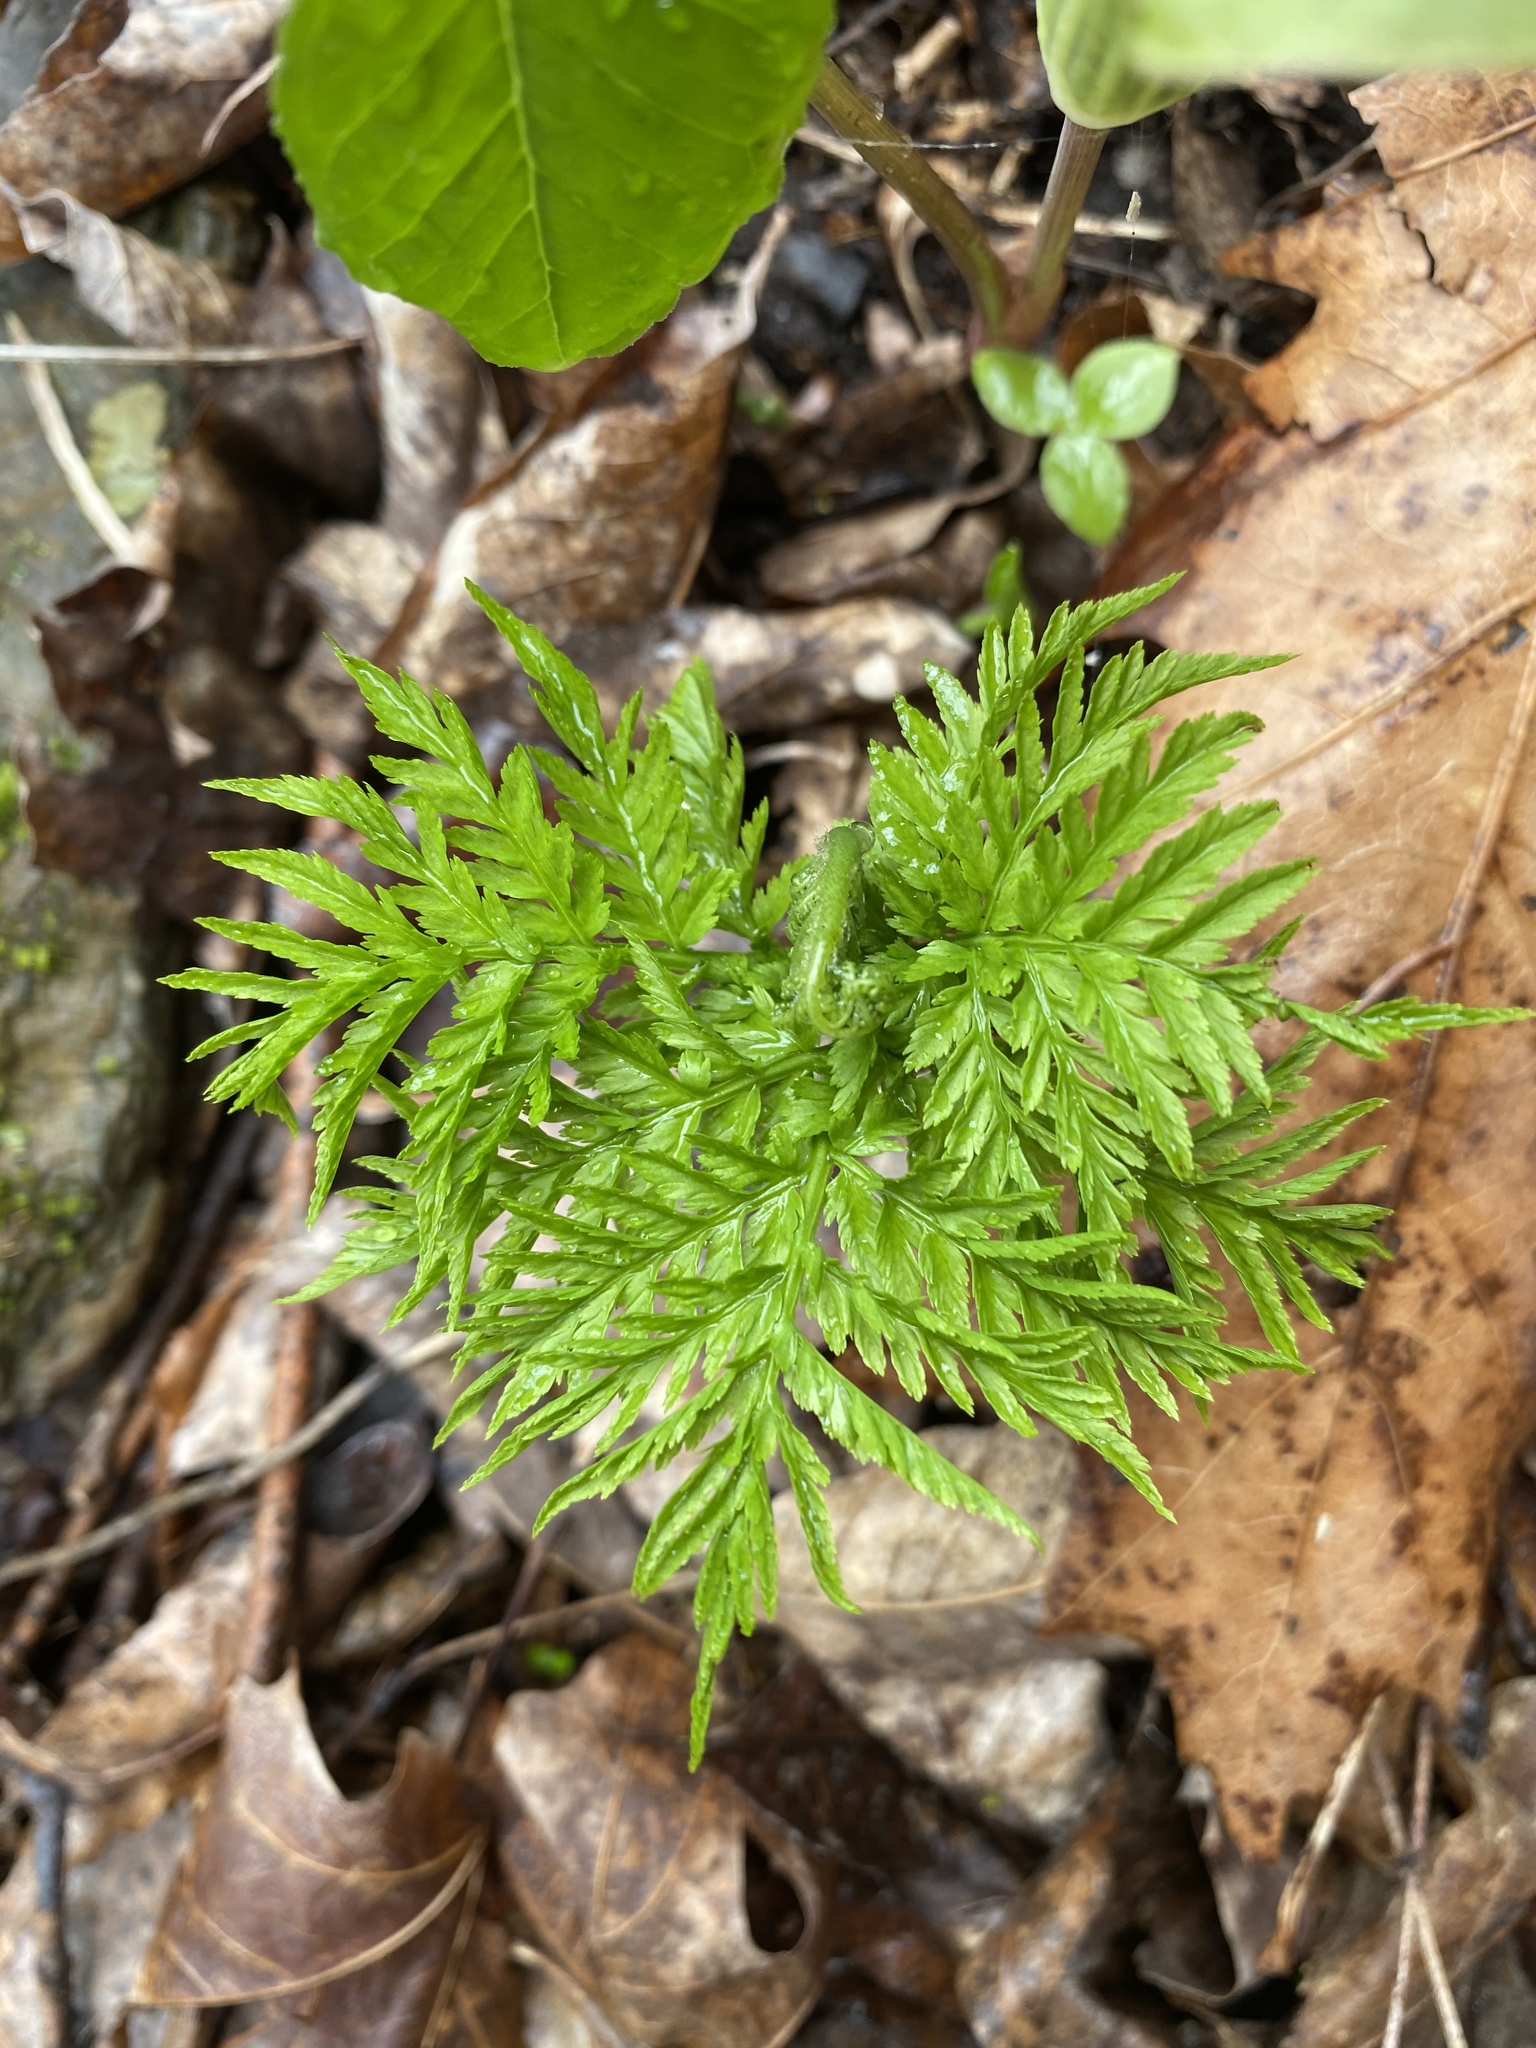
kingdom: Plantae
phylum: Tracheophyta
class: Polypodiopsida
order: Ophioglossales
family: Ophioglossaceae
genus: Botrypus
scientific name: Botrypus virginianus
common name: Common grapefern
